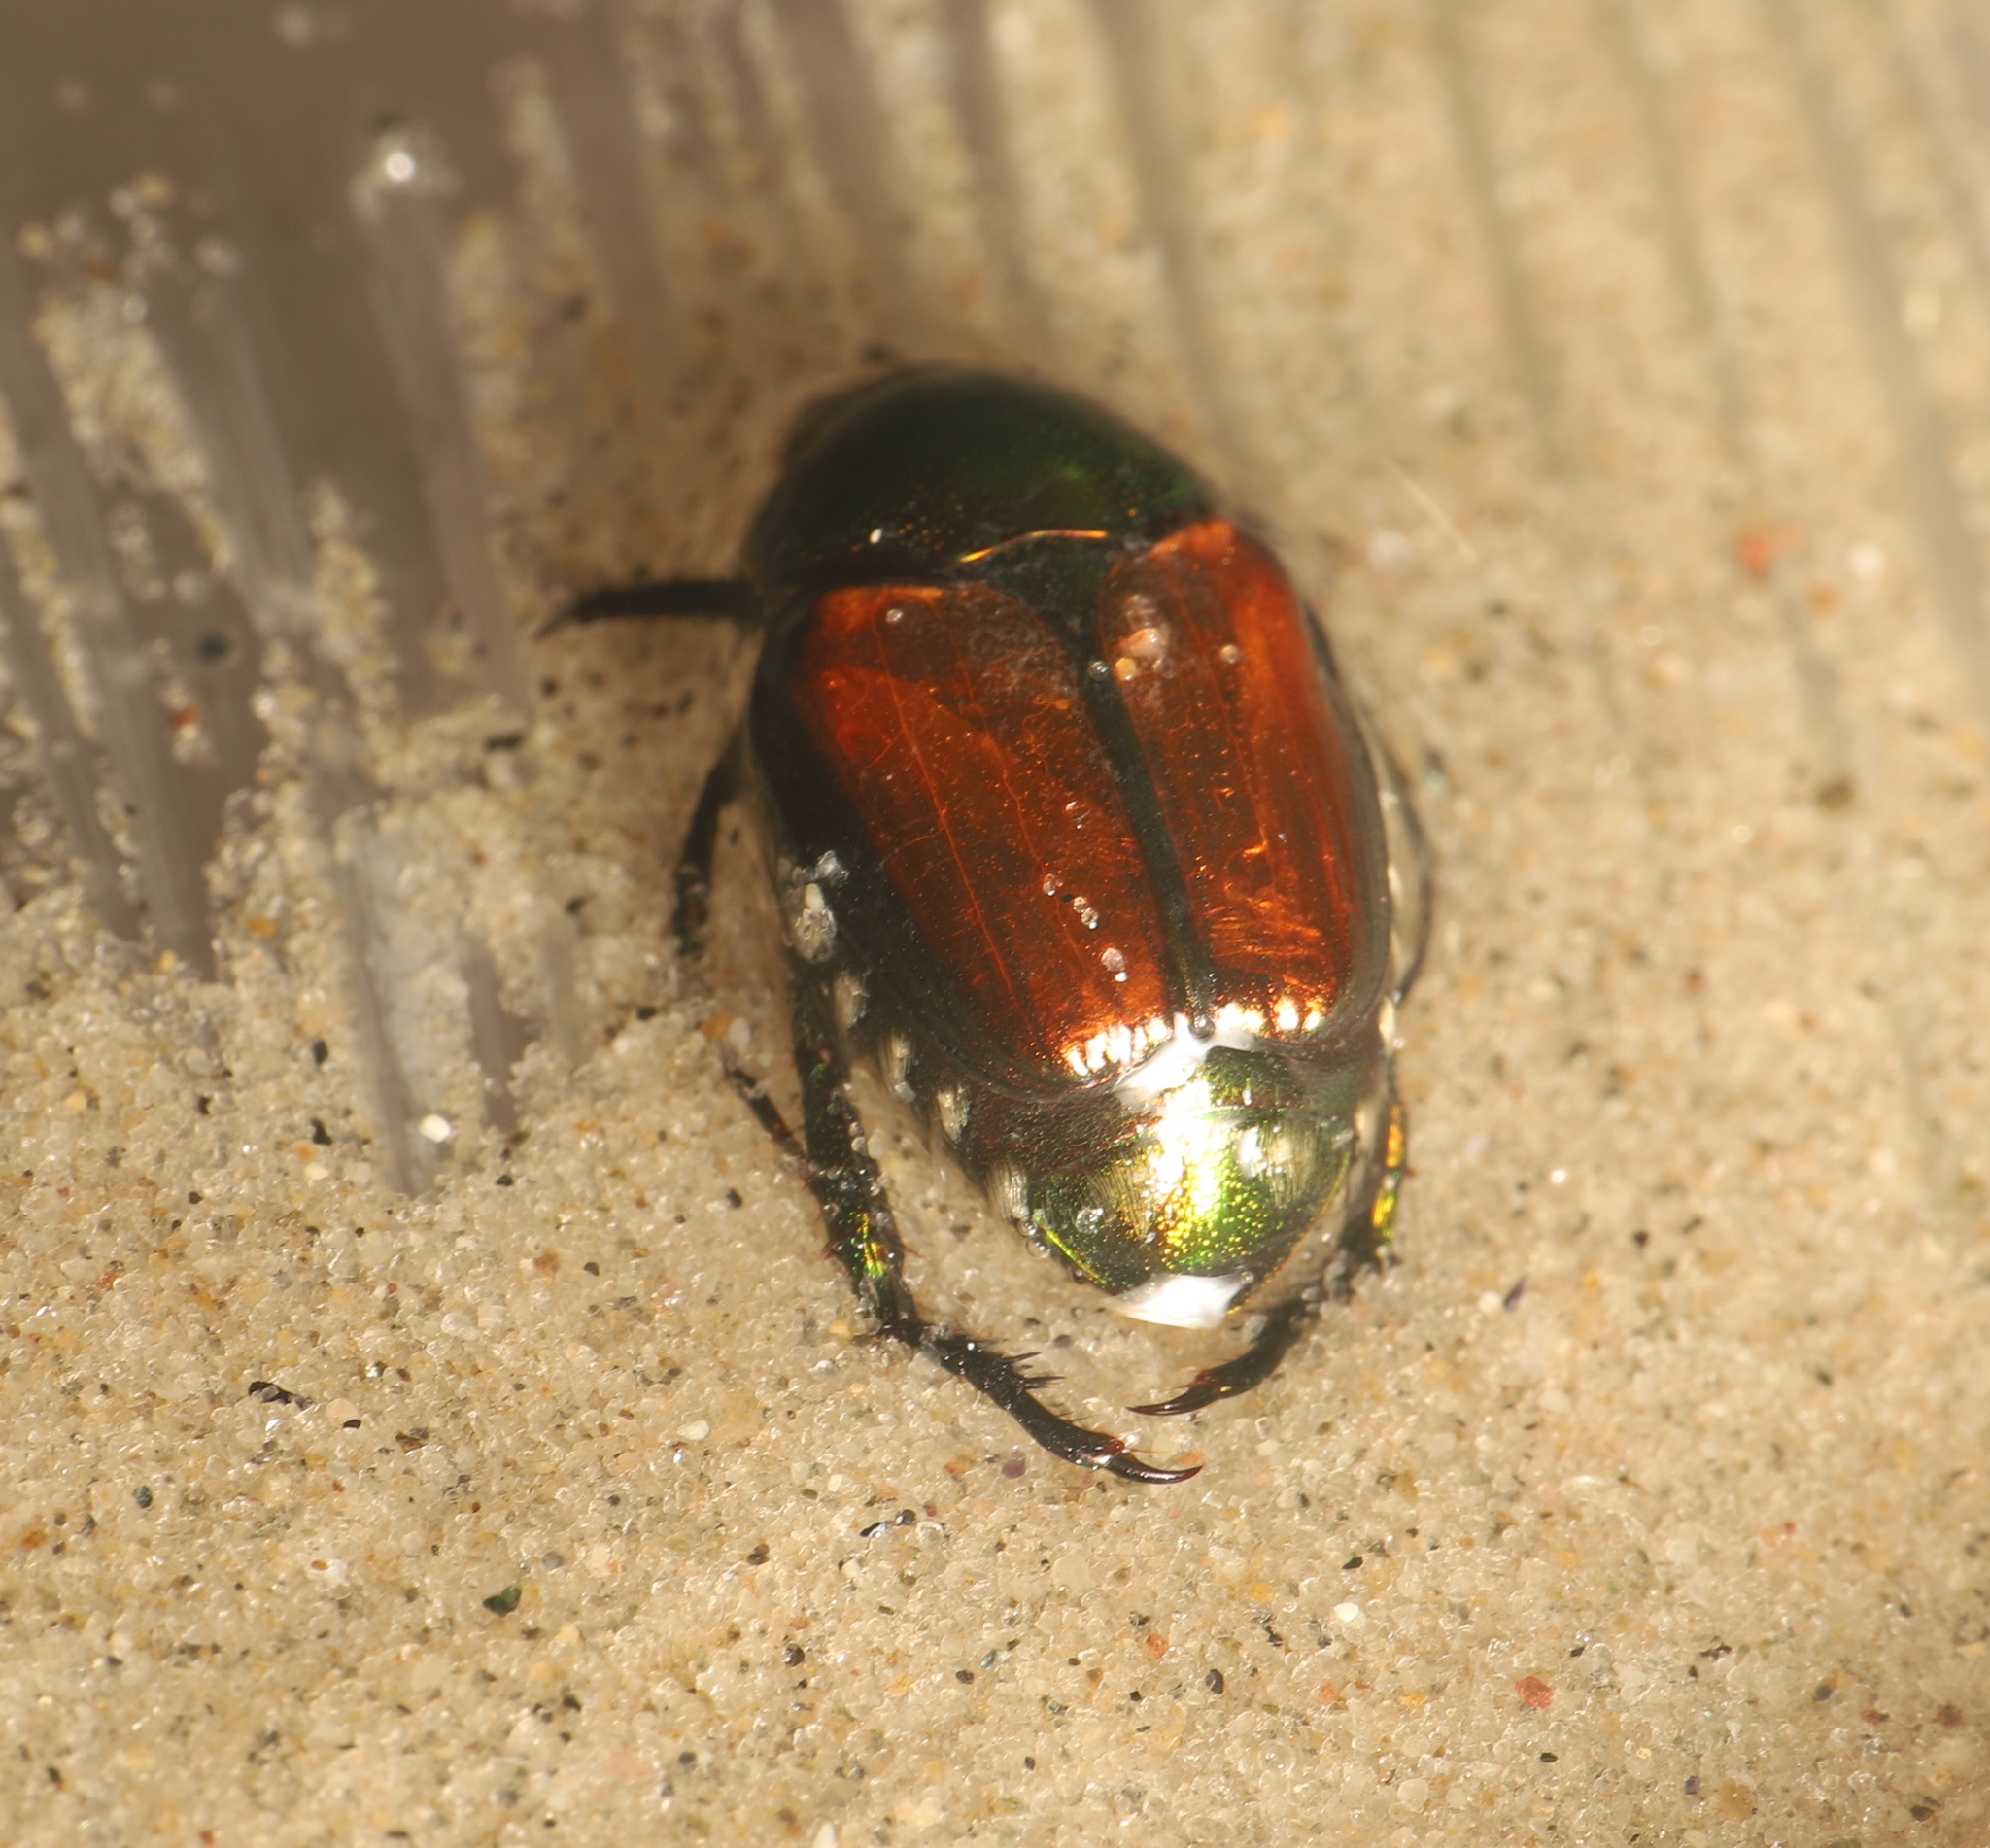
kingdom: Animalia
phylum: Arthropoda
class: Insecta
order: Coleoptera
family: Scarabaeidae
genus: Popillia
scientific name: Popillia japonica
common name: Japanese beetle
